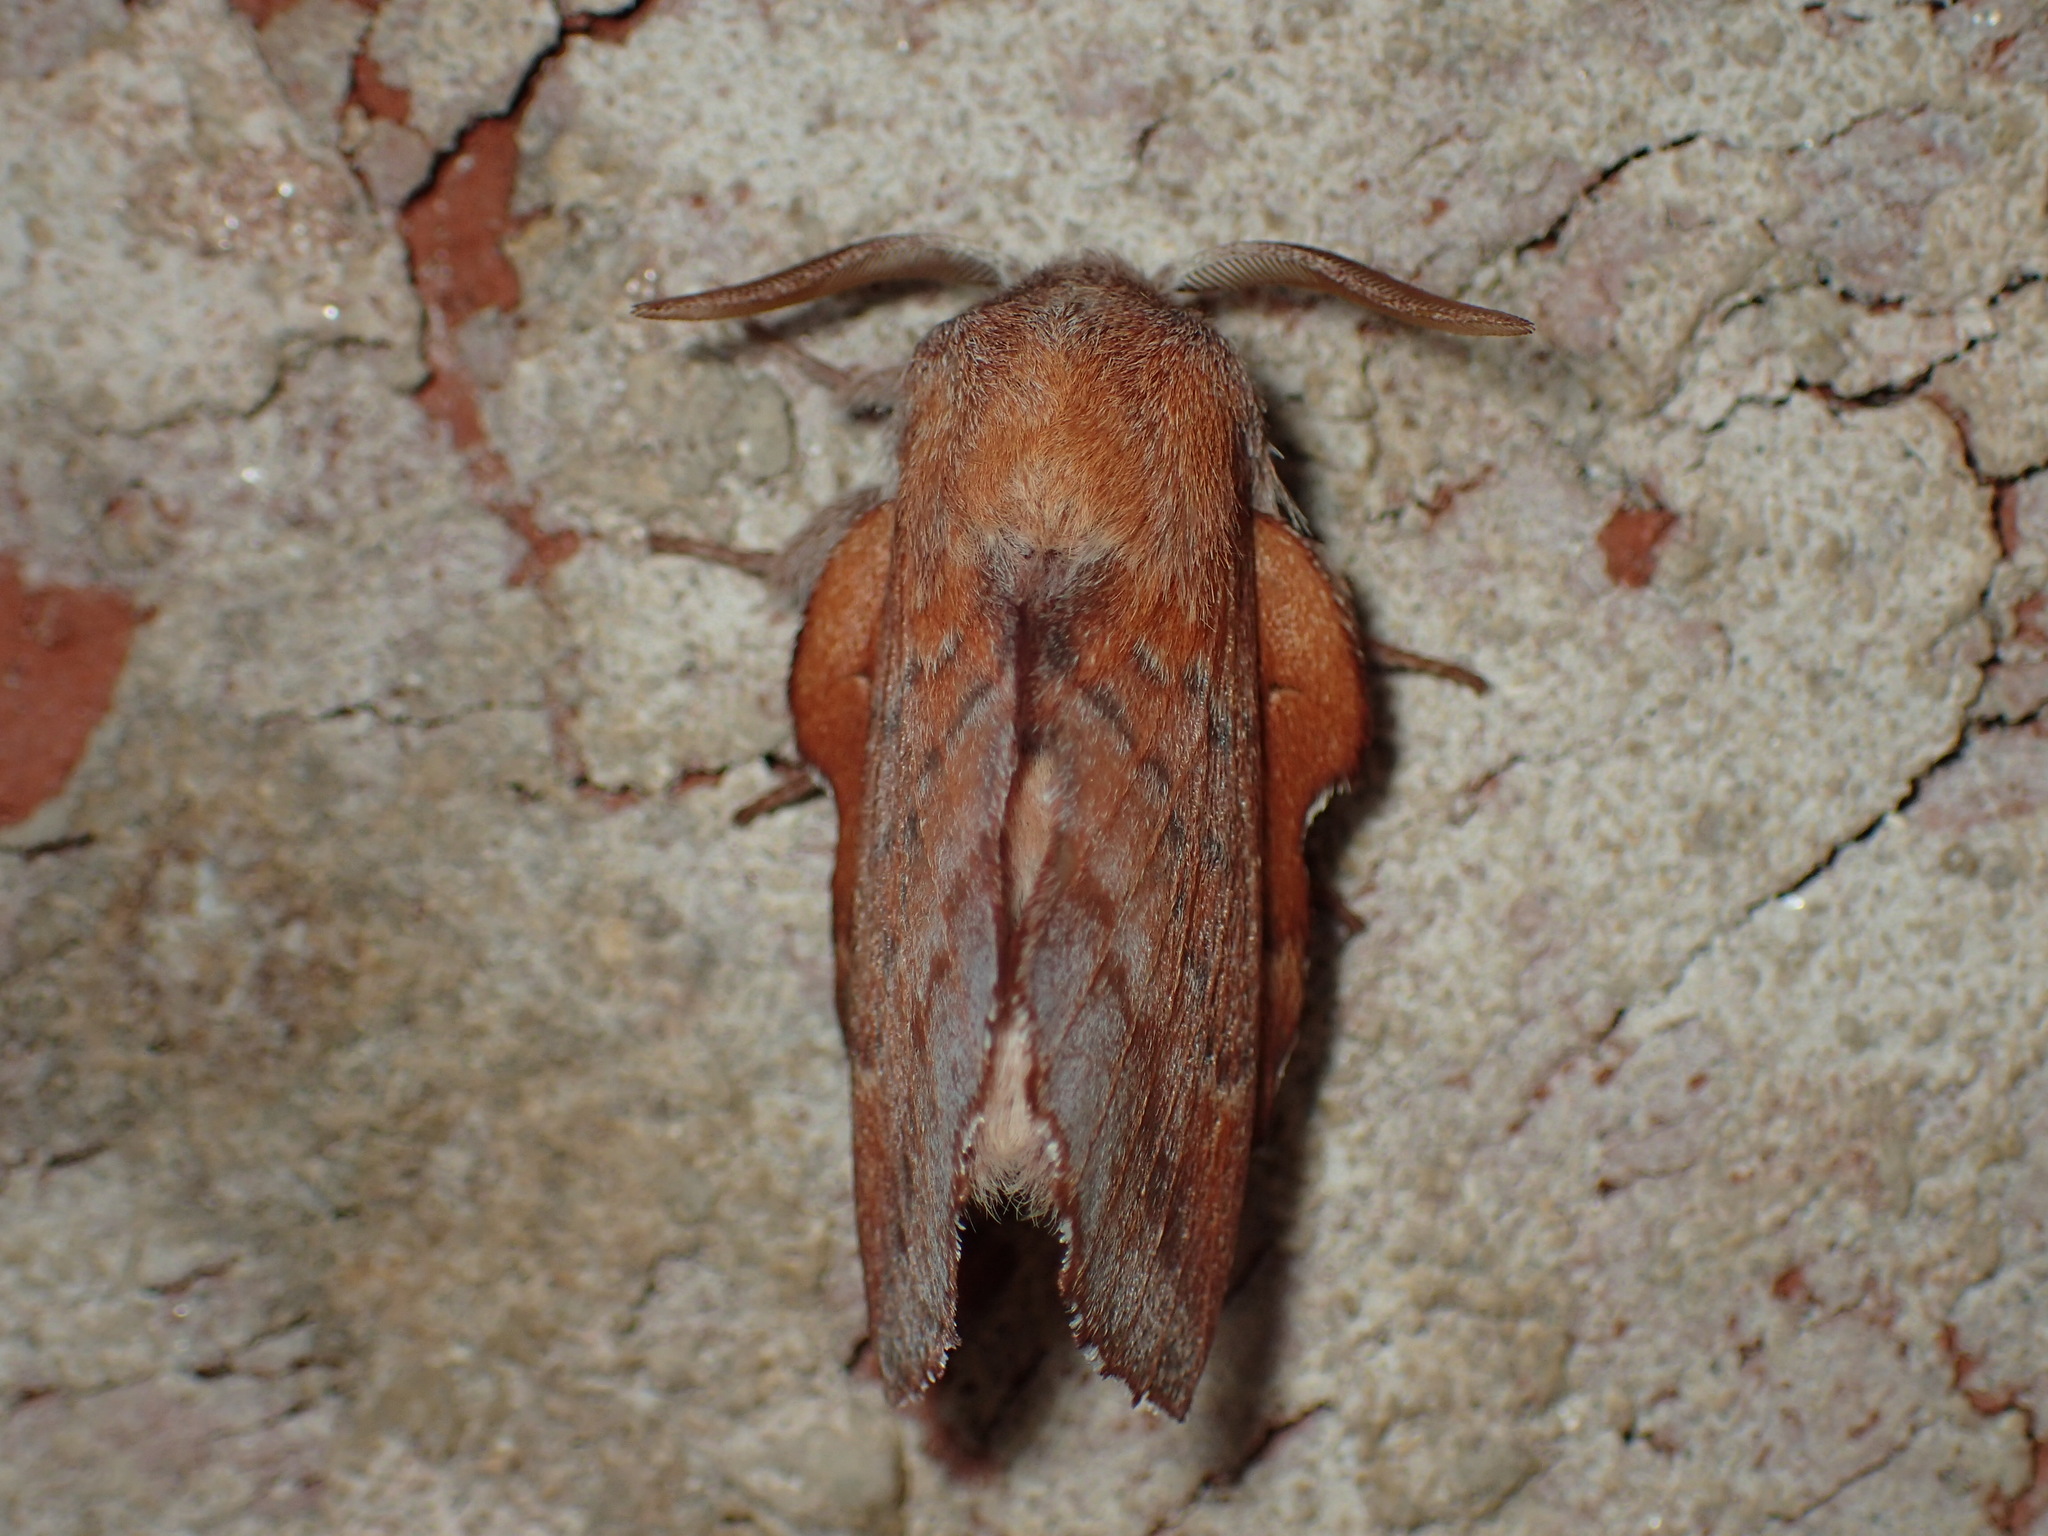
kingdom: Animalia
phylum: Arthropoda
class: Insecta
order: Lepidoptera
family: Lasiocampidae
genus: Phyllodesma
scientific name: Phyllodesma americana
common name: American lappet moth
